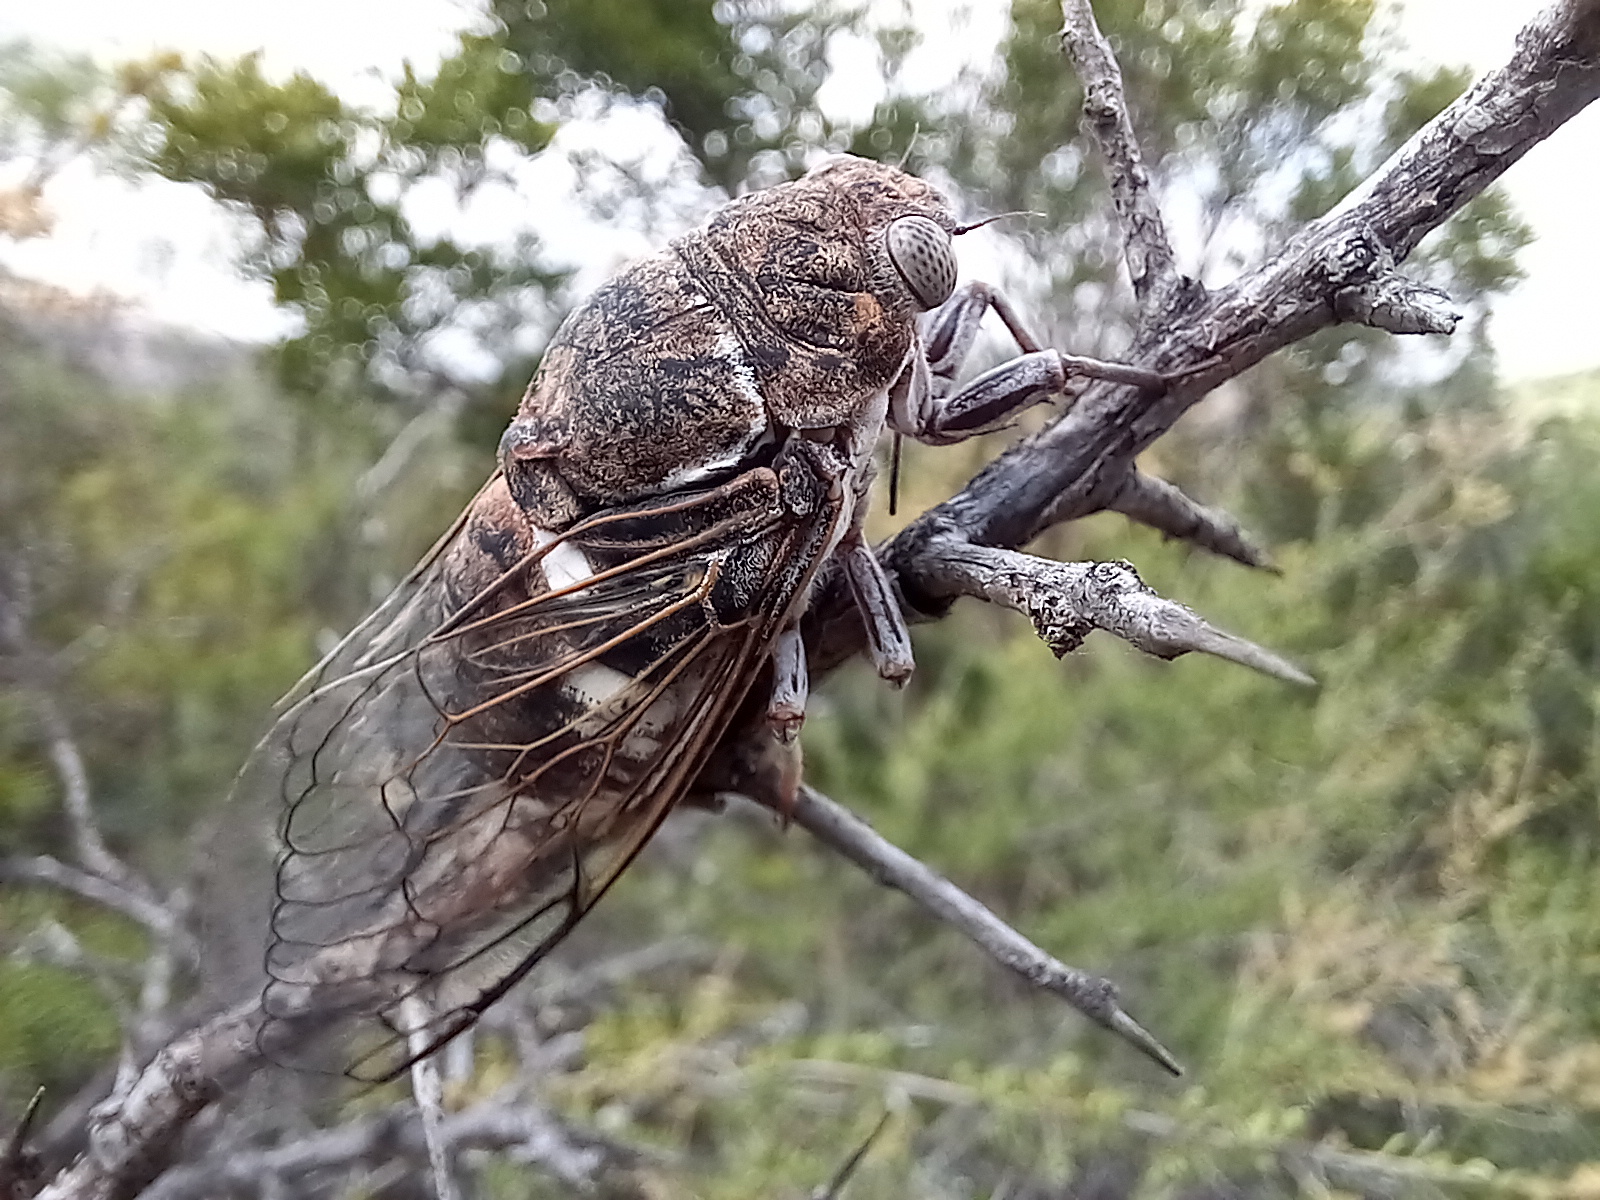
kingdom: Animalia
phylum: Arthropoda
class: Insecta
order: Hemiptera
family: Cicadidae
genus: Cacama
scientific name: Cacama valvata
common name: Cactus dodger
